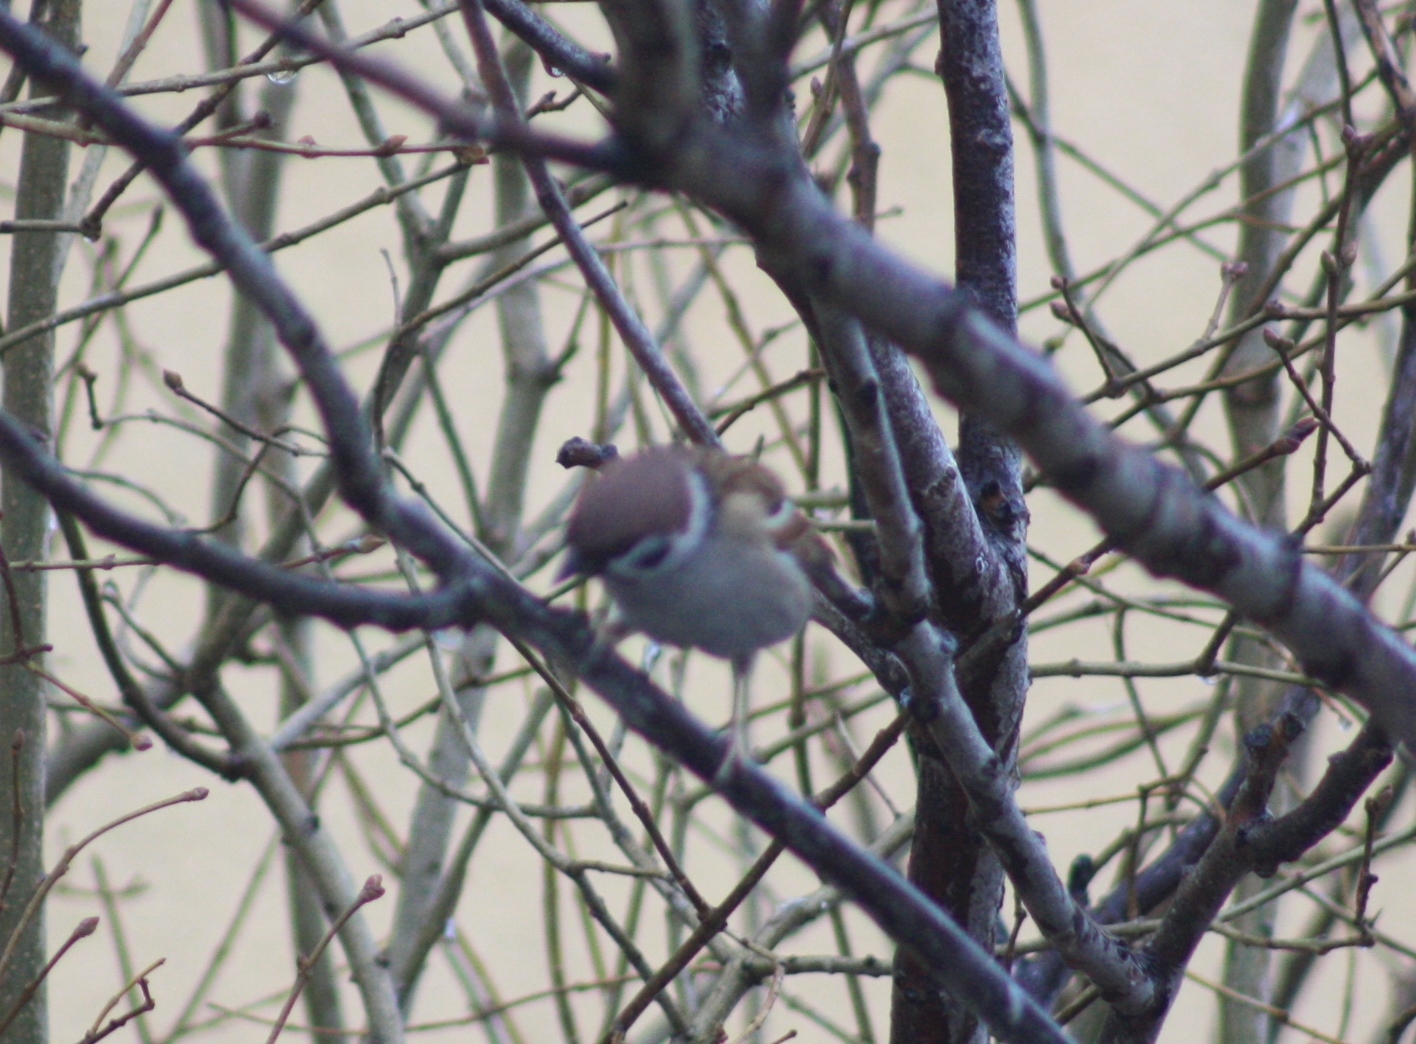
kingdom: Animalia
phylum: Chordata
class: Aves
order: Passeriformes
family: Passeridae
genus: Passer
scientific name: Passer montanus
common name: Eurasian tree sparrow
